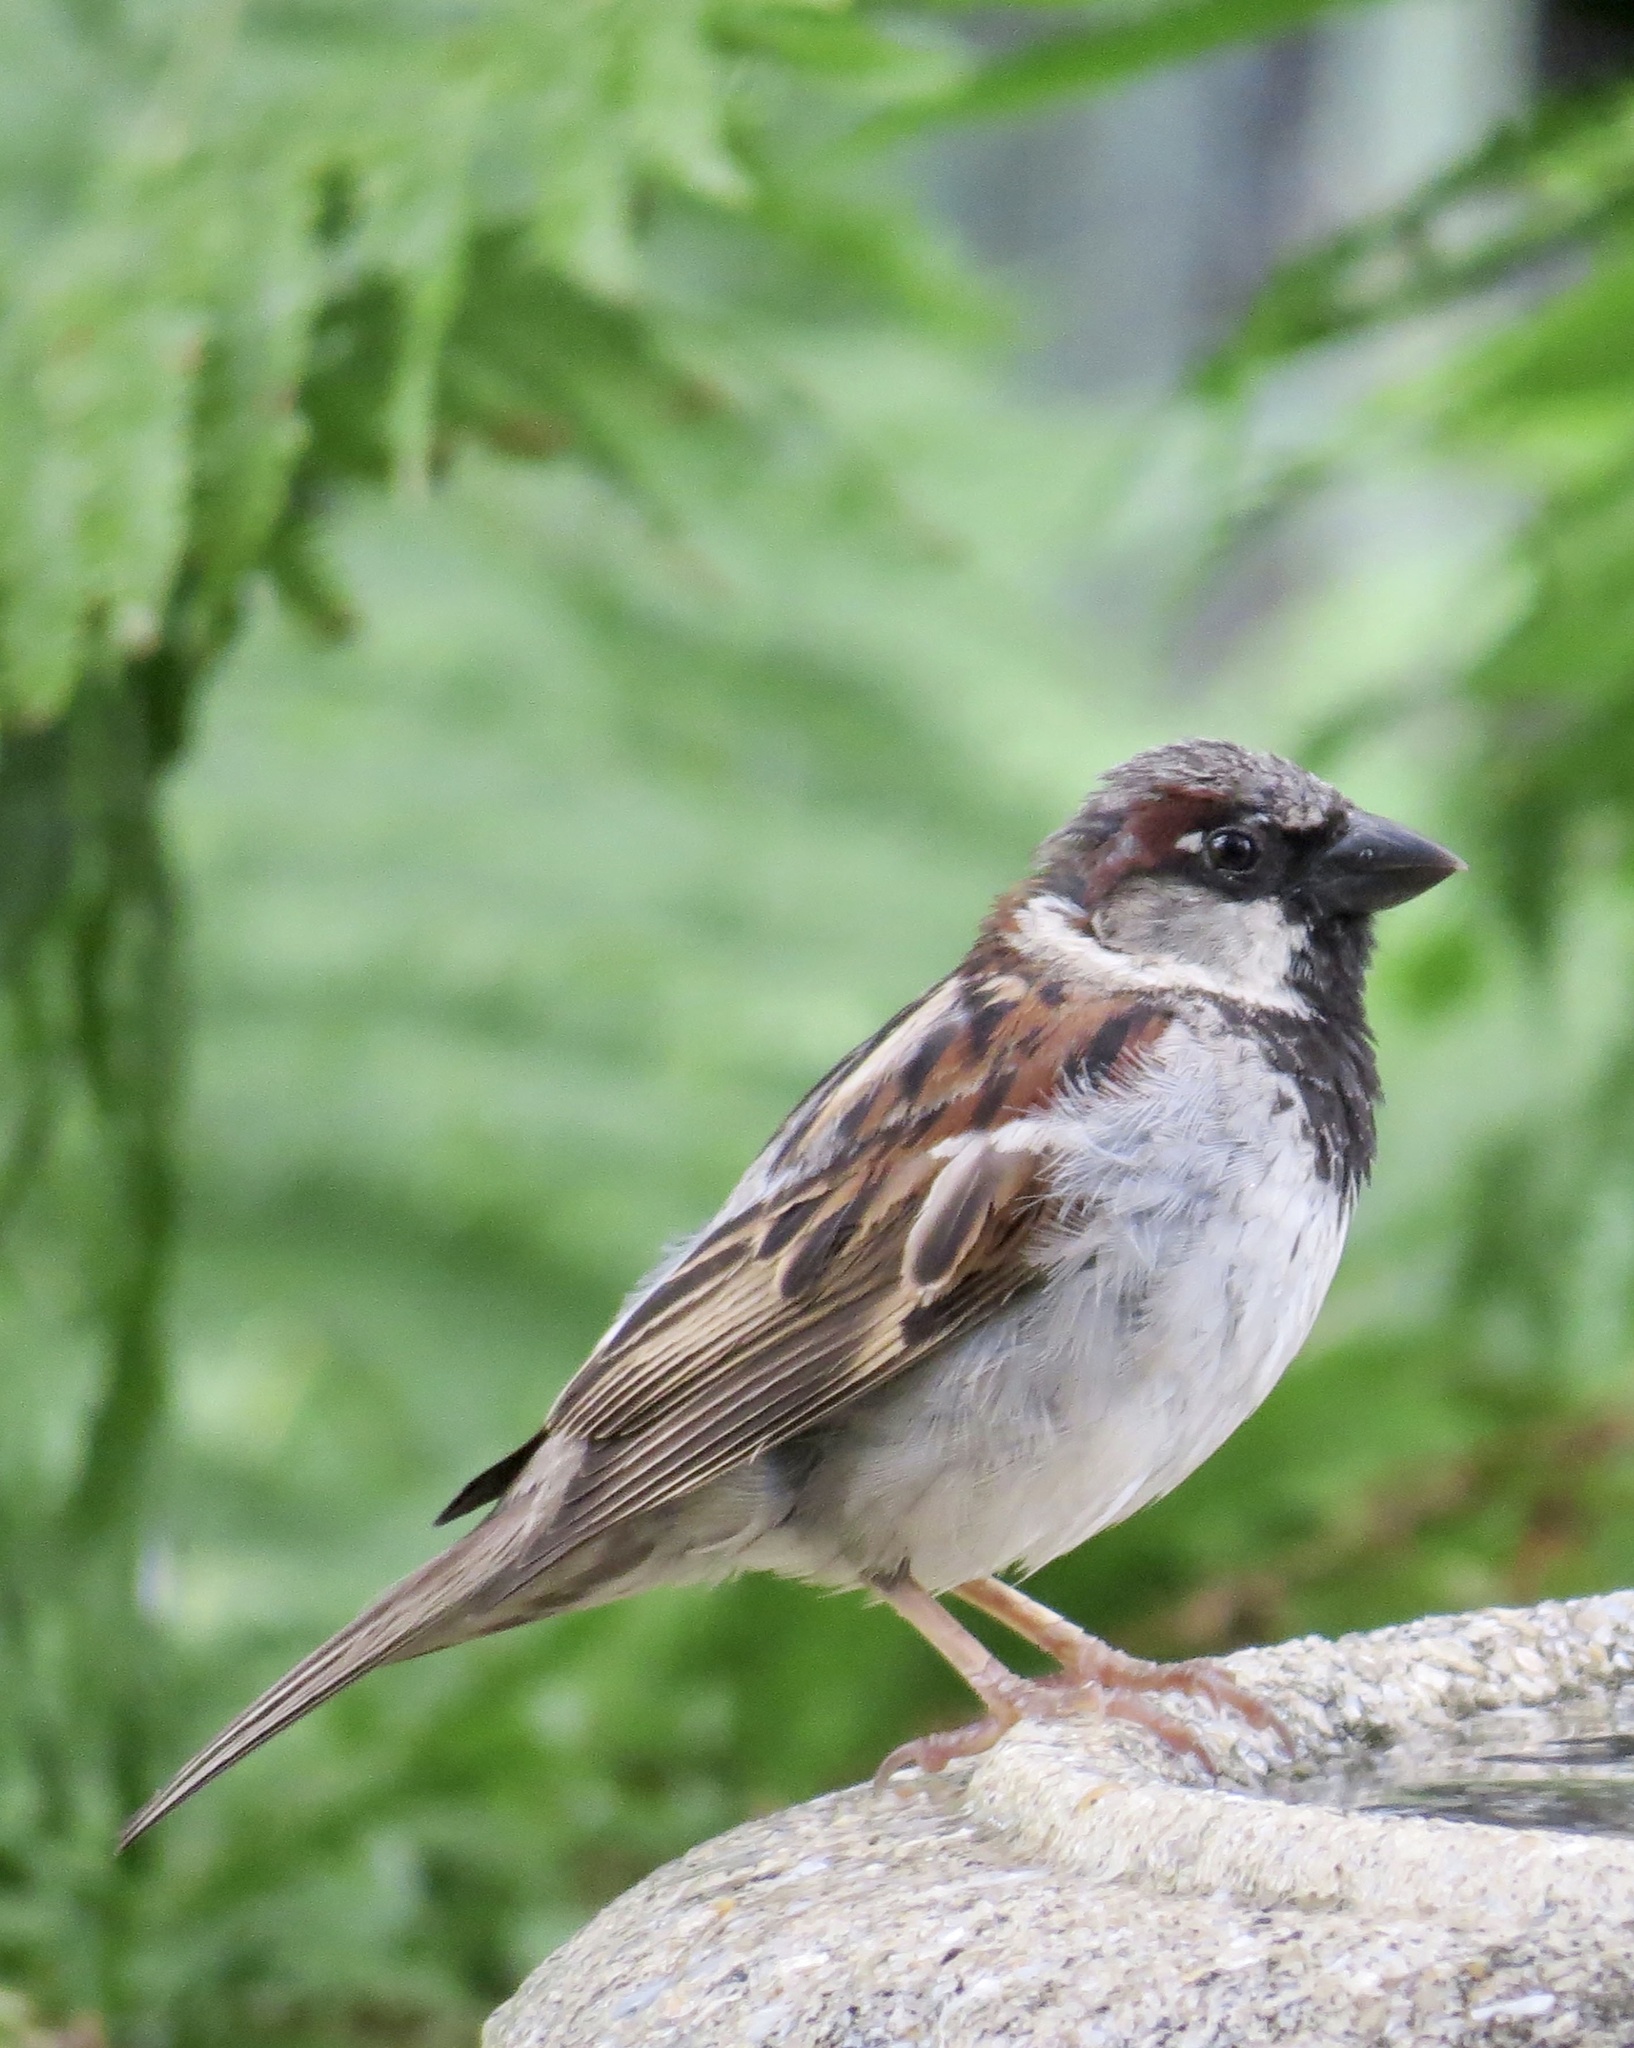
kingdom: Animalia
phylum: Chordata
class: Aves
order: Passeriformes
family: Passeridae
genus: Passer
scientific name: Passer domesticus
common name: House sparrow
